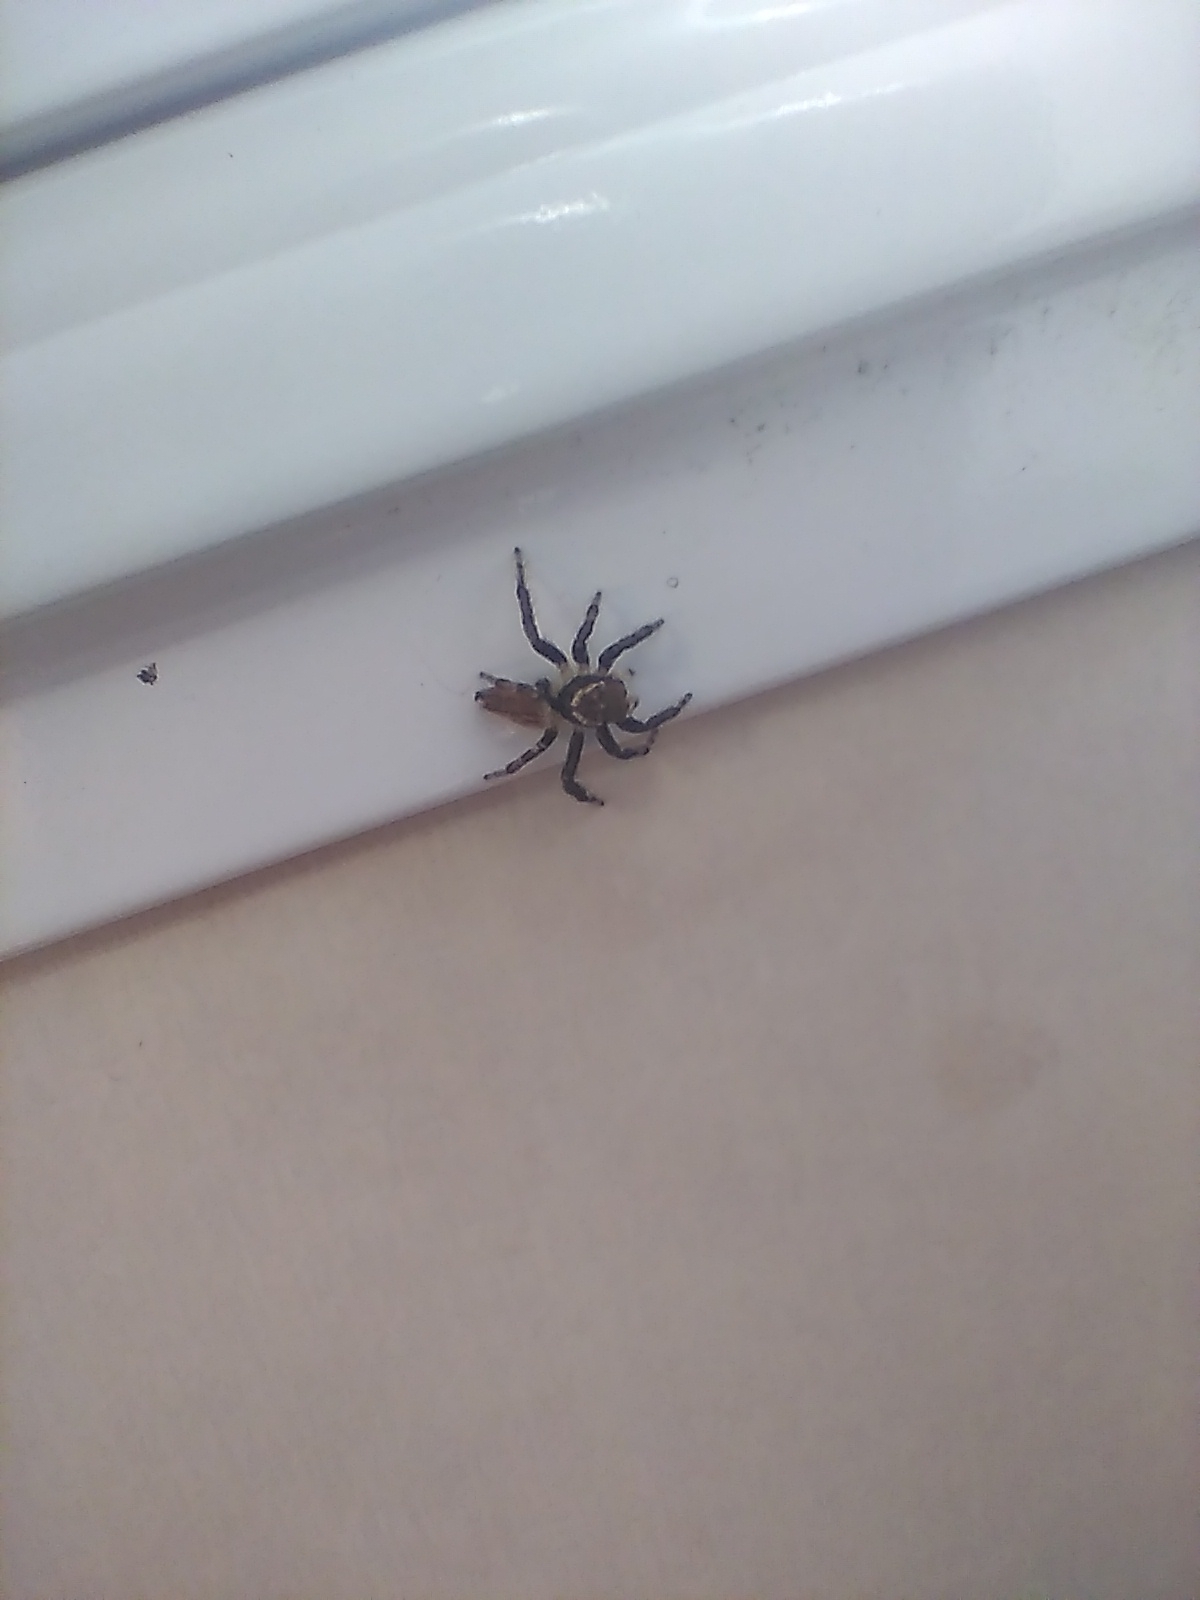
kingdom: Animalia
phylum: Arthropoda
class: Arachnida
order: Araneae
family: Salticidae
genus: Maratus
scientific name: Maratus griseus
